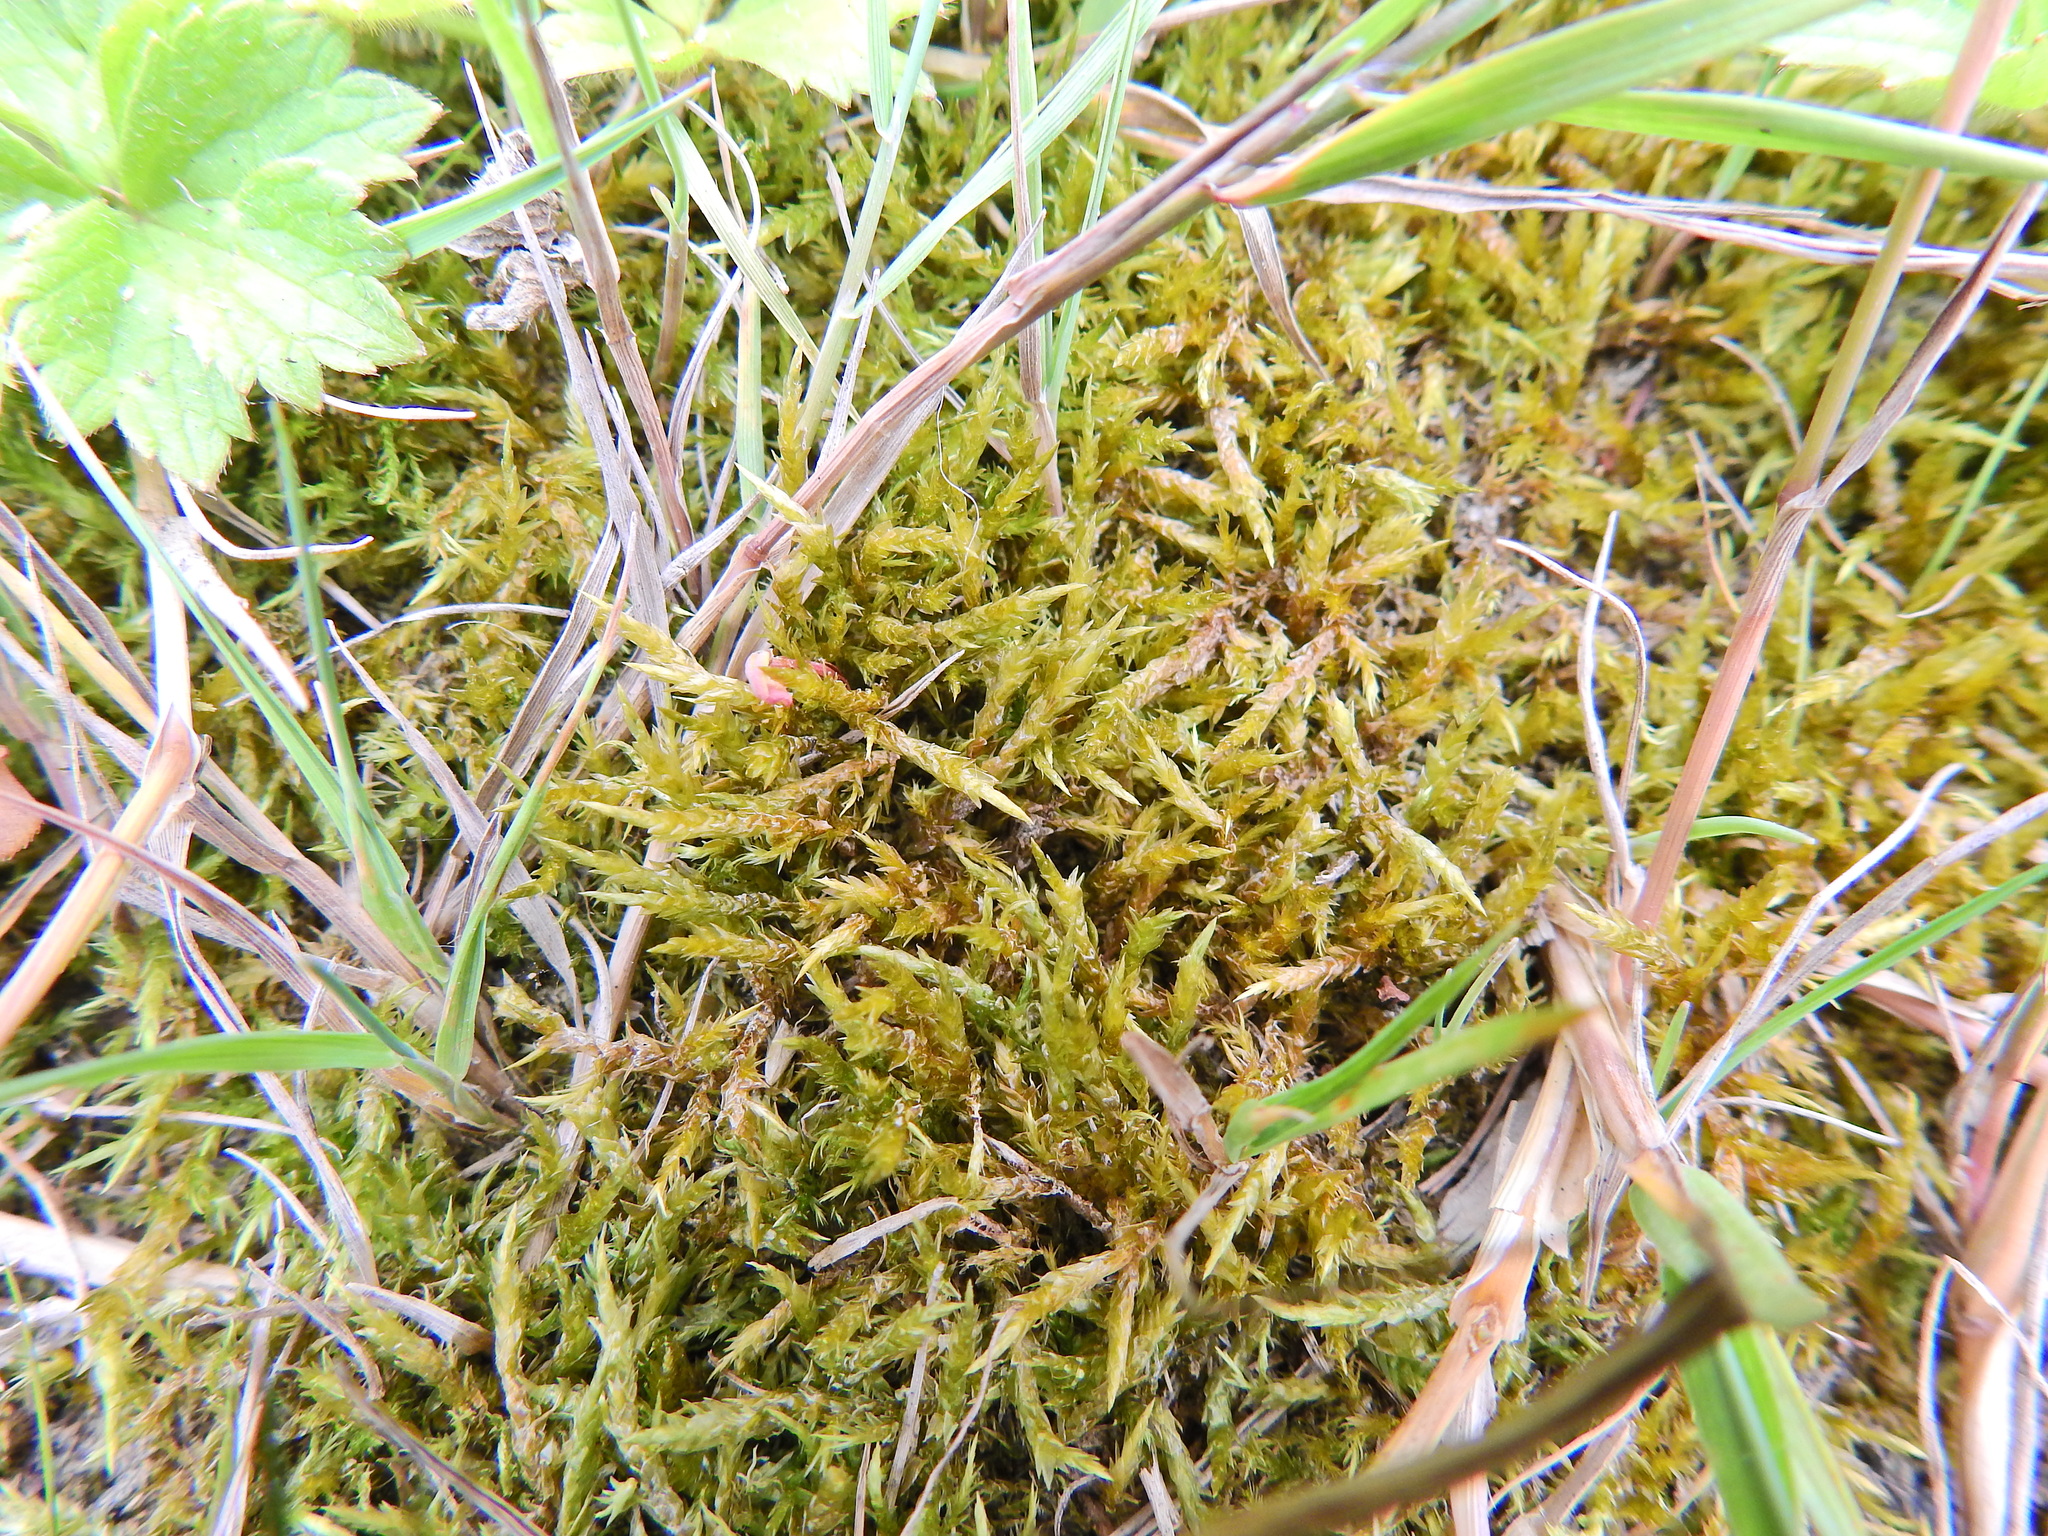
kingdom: Plantae
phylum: Bryophyta
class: Bryopsida
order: Hypnales
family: Pylaisiaceae
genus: Calliergonella
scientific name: Calliergonella cuspidata
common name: Common large wetland moss
